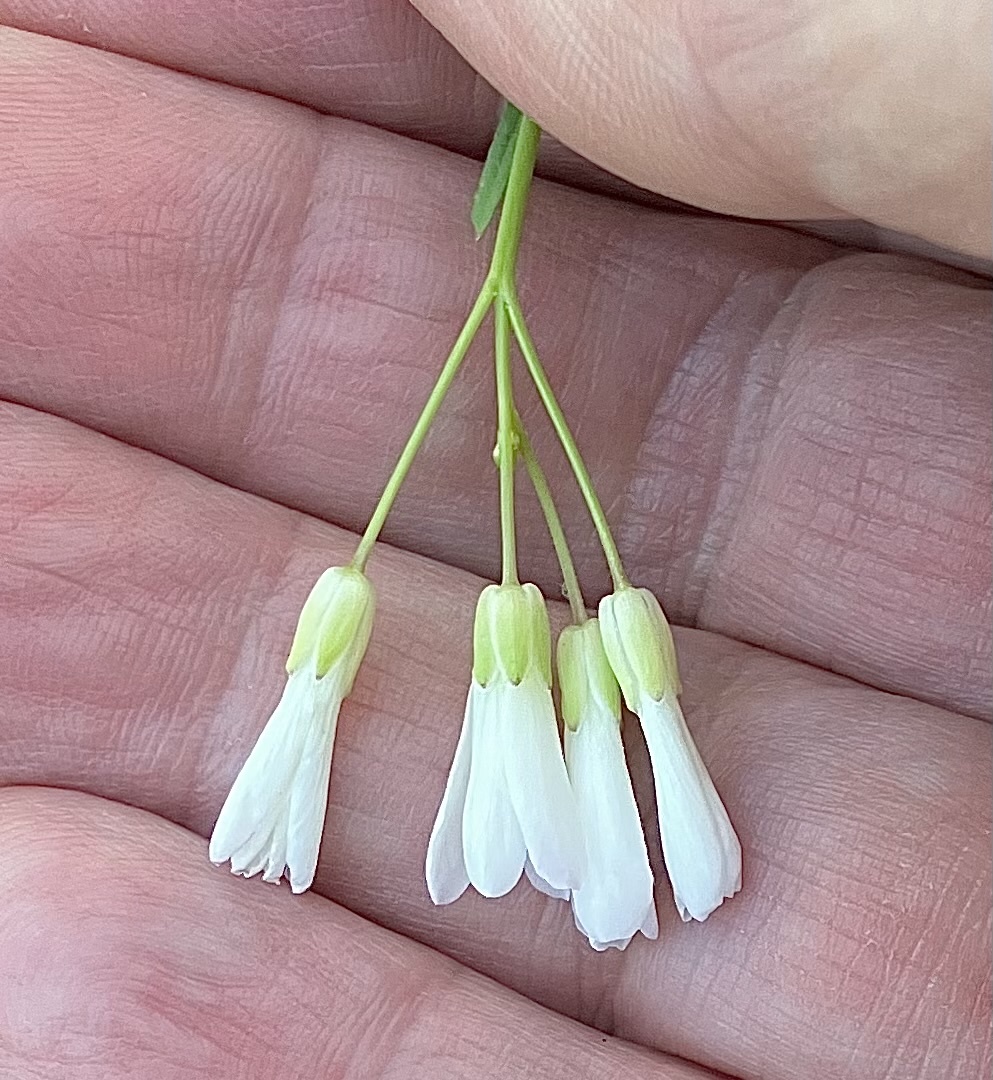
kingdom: Plantae
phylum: Tracheophyta
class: Magnoliopsida
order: Brassicales
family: Brassicaceae
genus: Cardamine
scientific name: Cardamine dissecta
